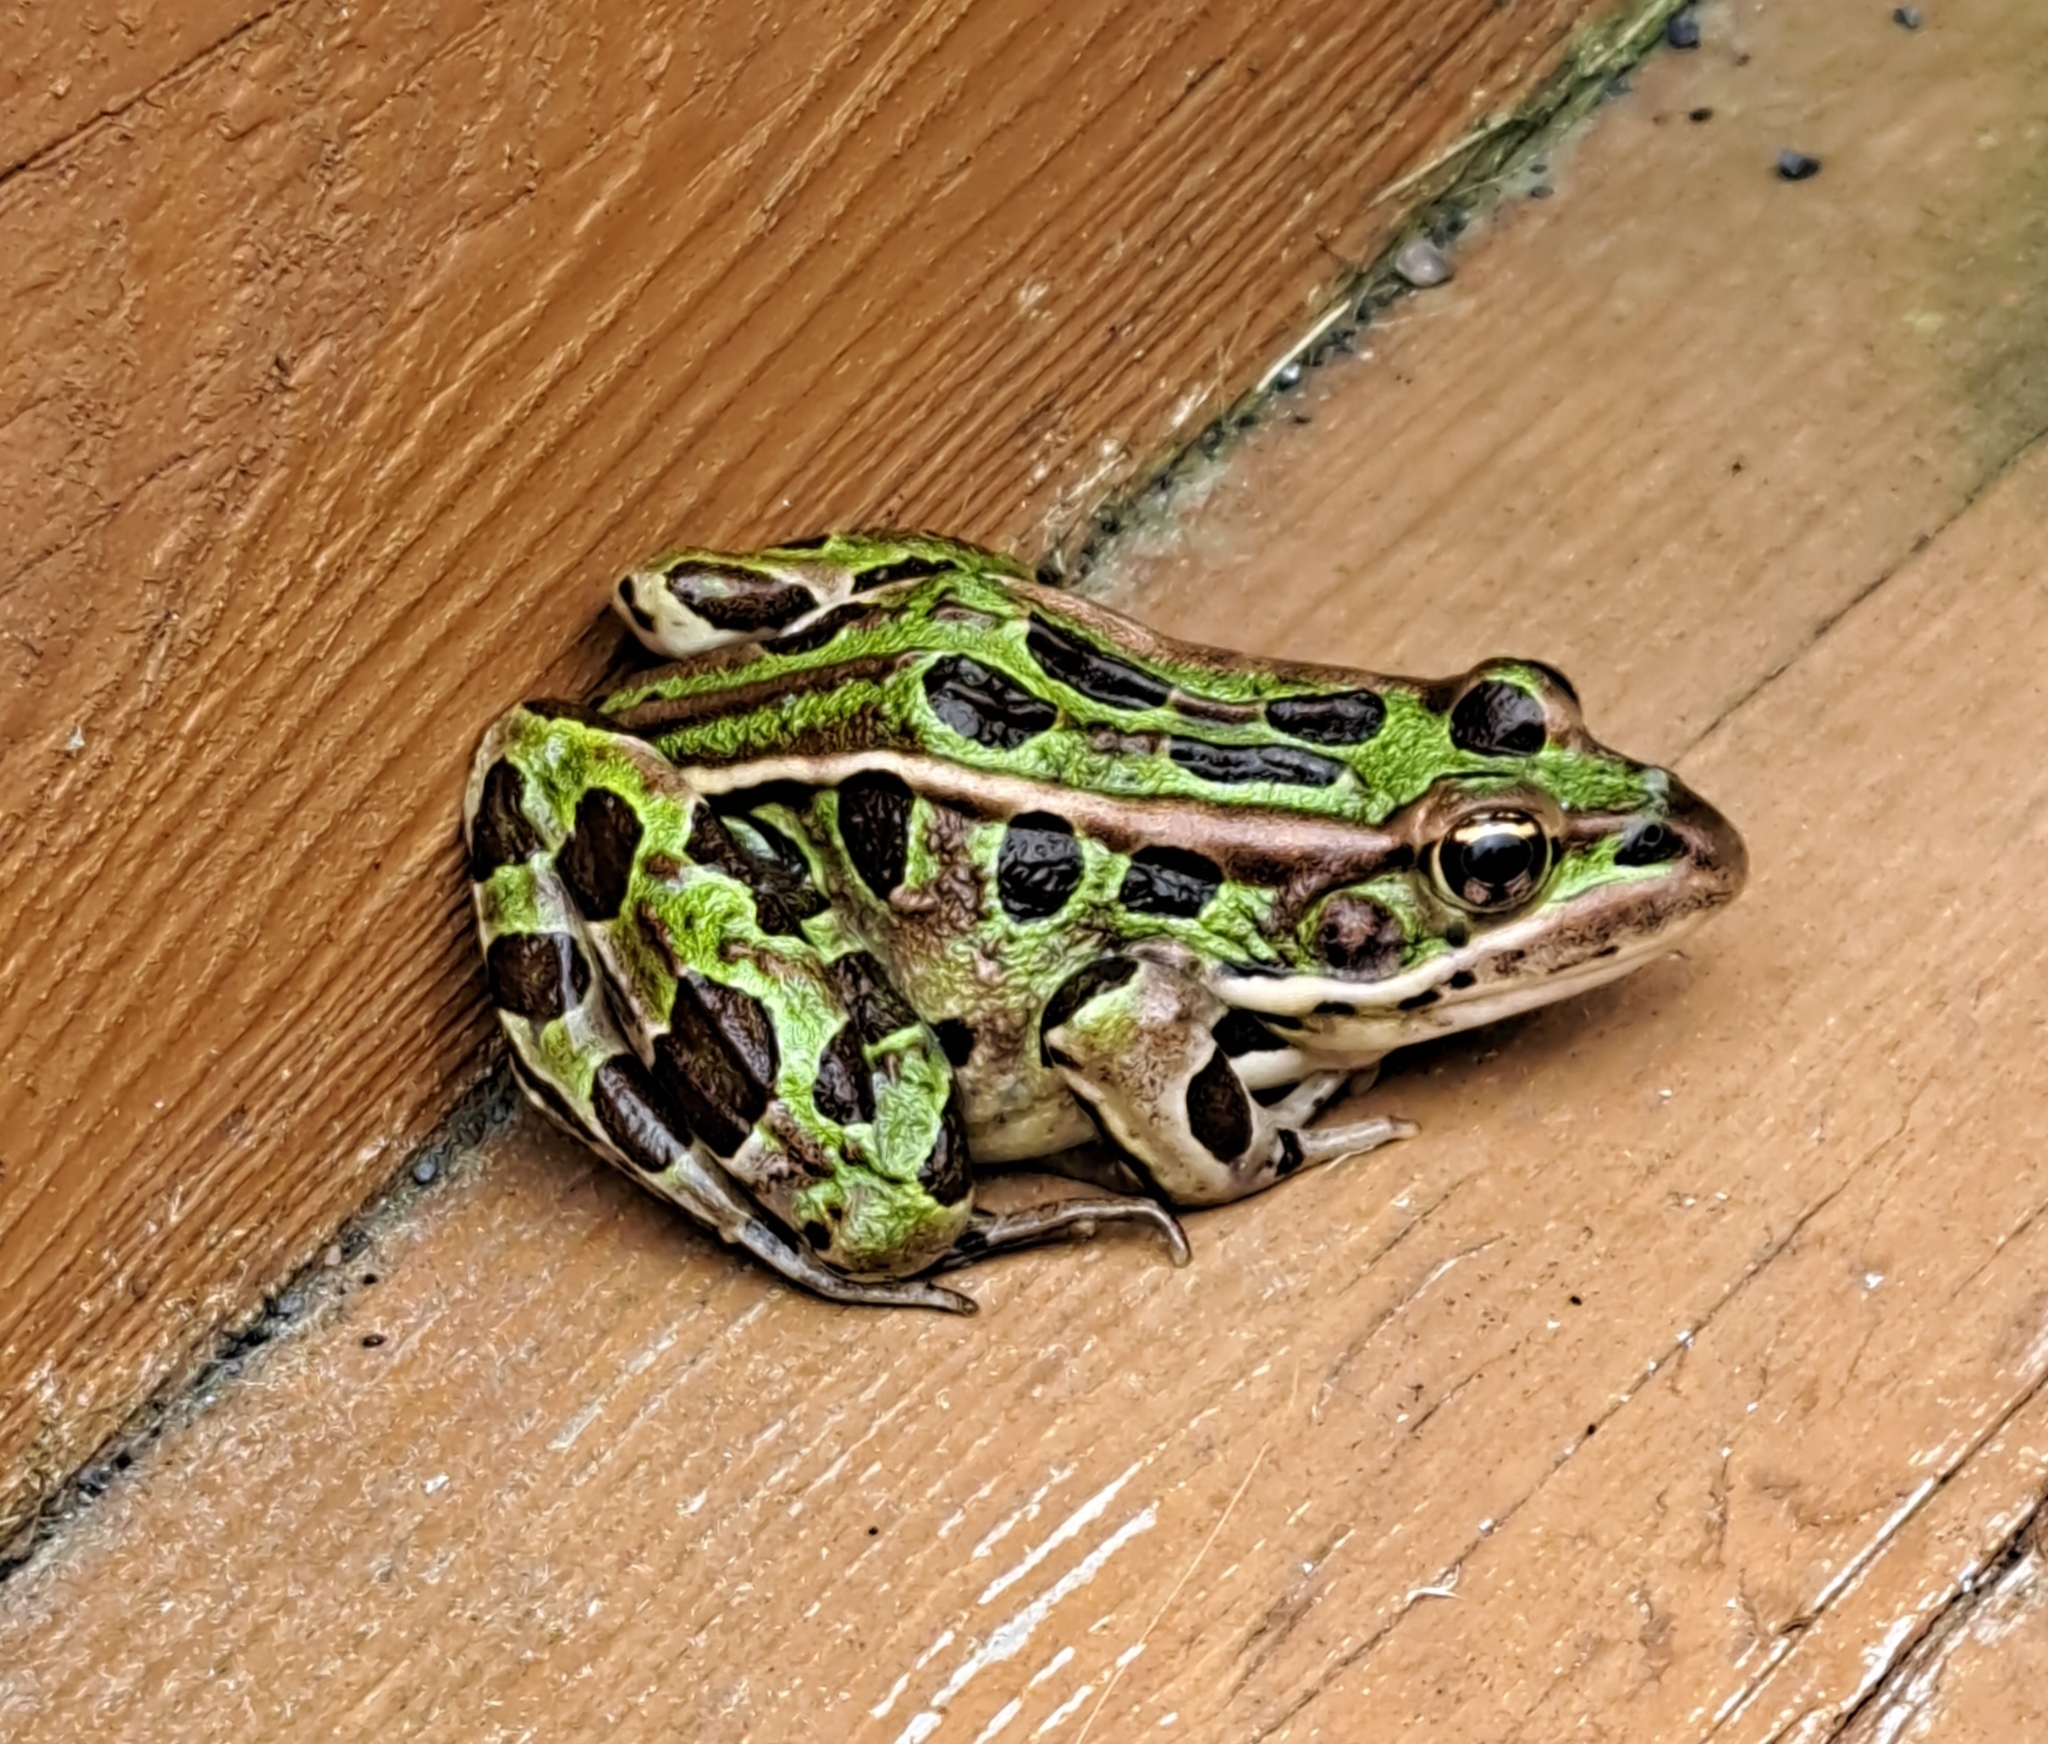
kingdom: Animalia
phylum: Chordata
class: Amphibia
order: Anura
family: Ranidae
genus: Lithobates
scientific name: Lithobates pipiens
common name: Northern leopard frog
